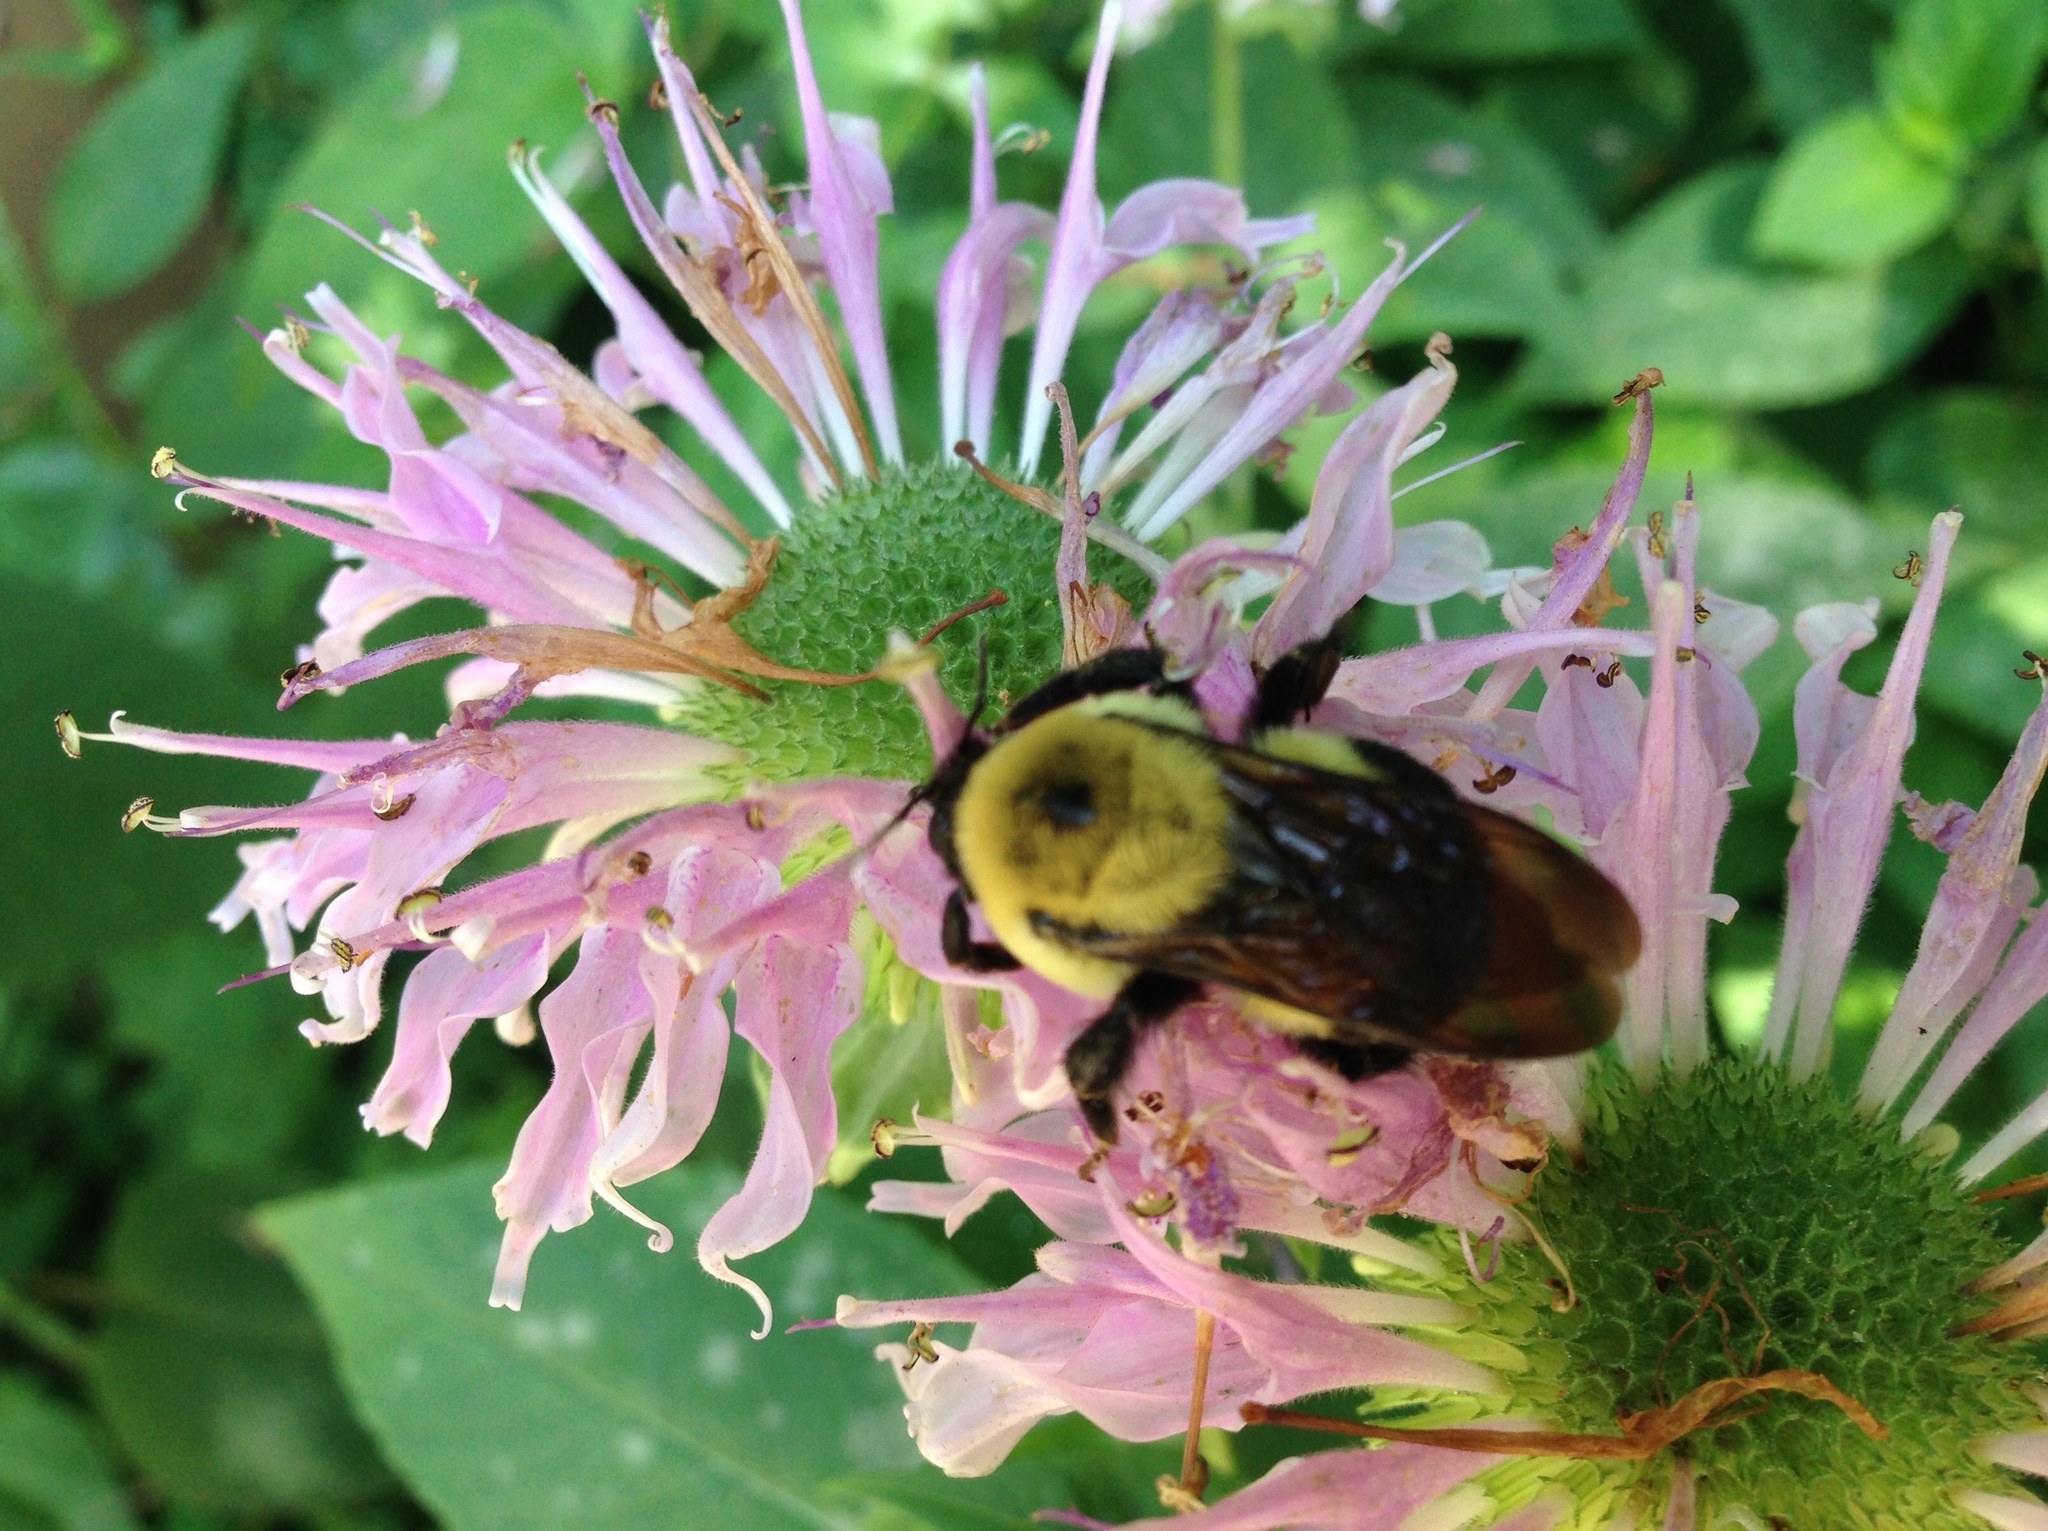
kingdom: Animalia
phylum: Arthropoda
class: Insecta
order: Hymenoptera
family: Apidae
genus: Bombus
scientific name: Bombus griseocollis
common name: Brown-belted bumble bee
